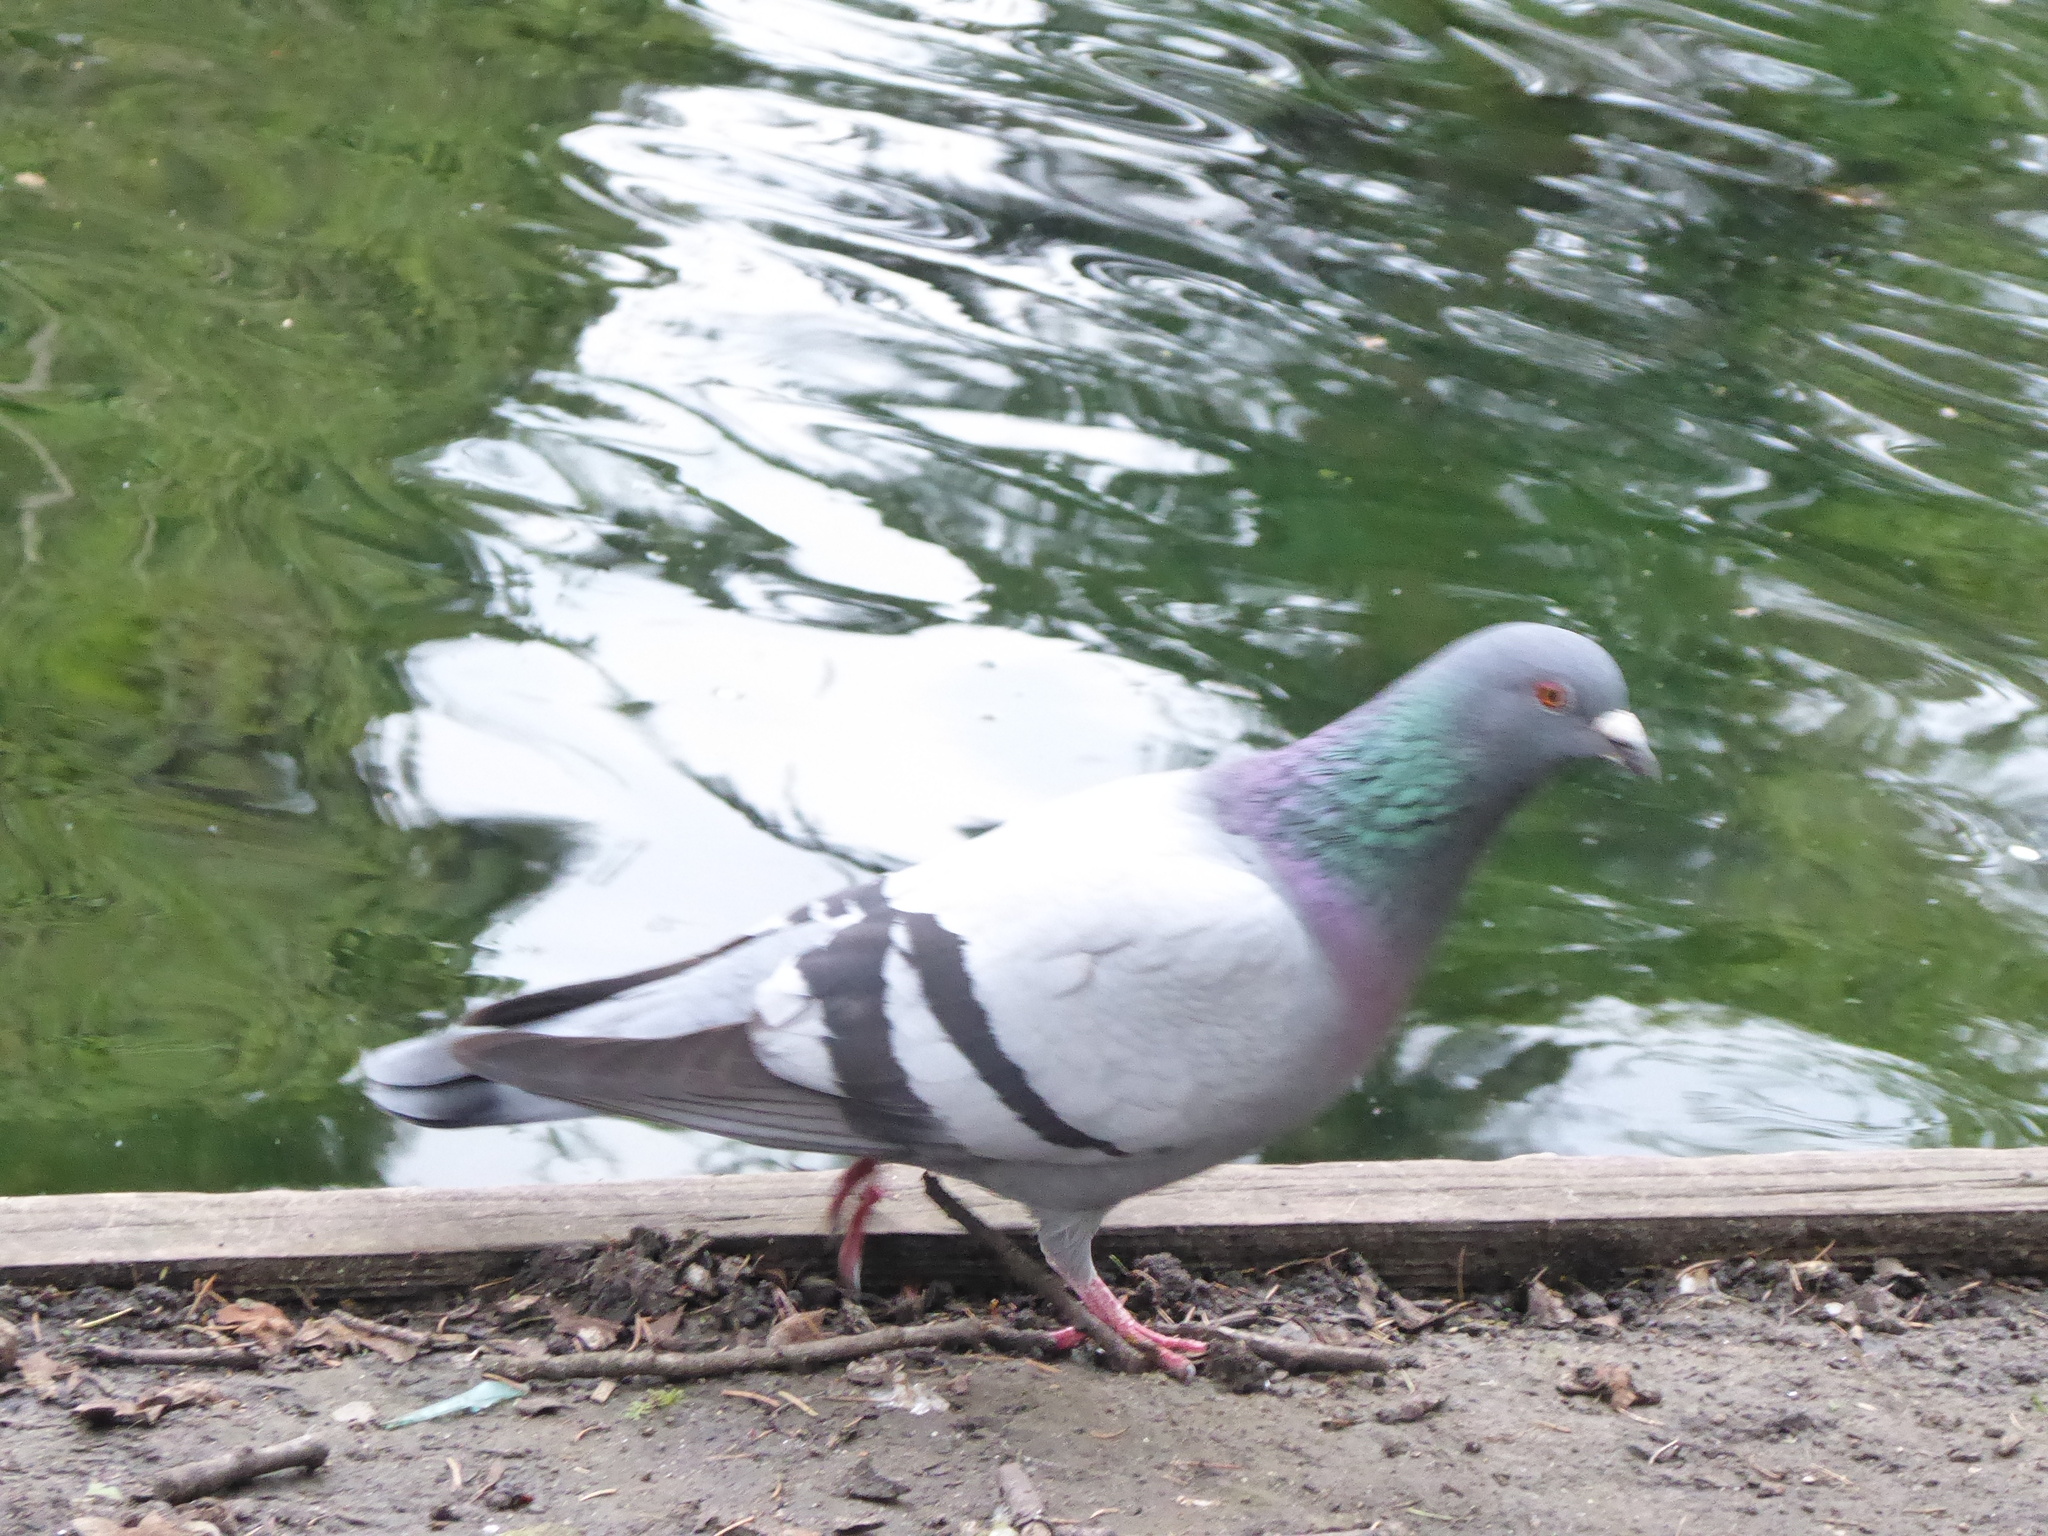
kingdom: Animalia
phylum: Chordata
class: Aves
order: Columbiformes
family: Columbidae
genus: Columba
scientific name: Columba livia
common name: Rock pigeon
